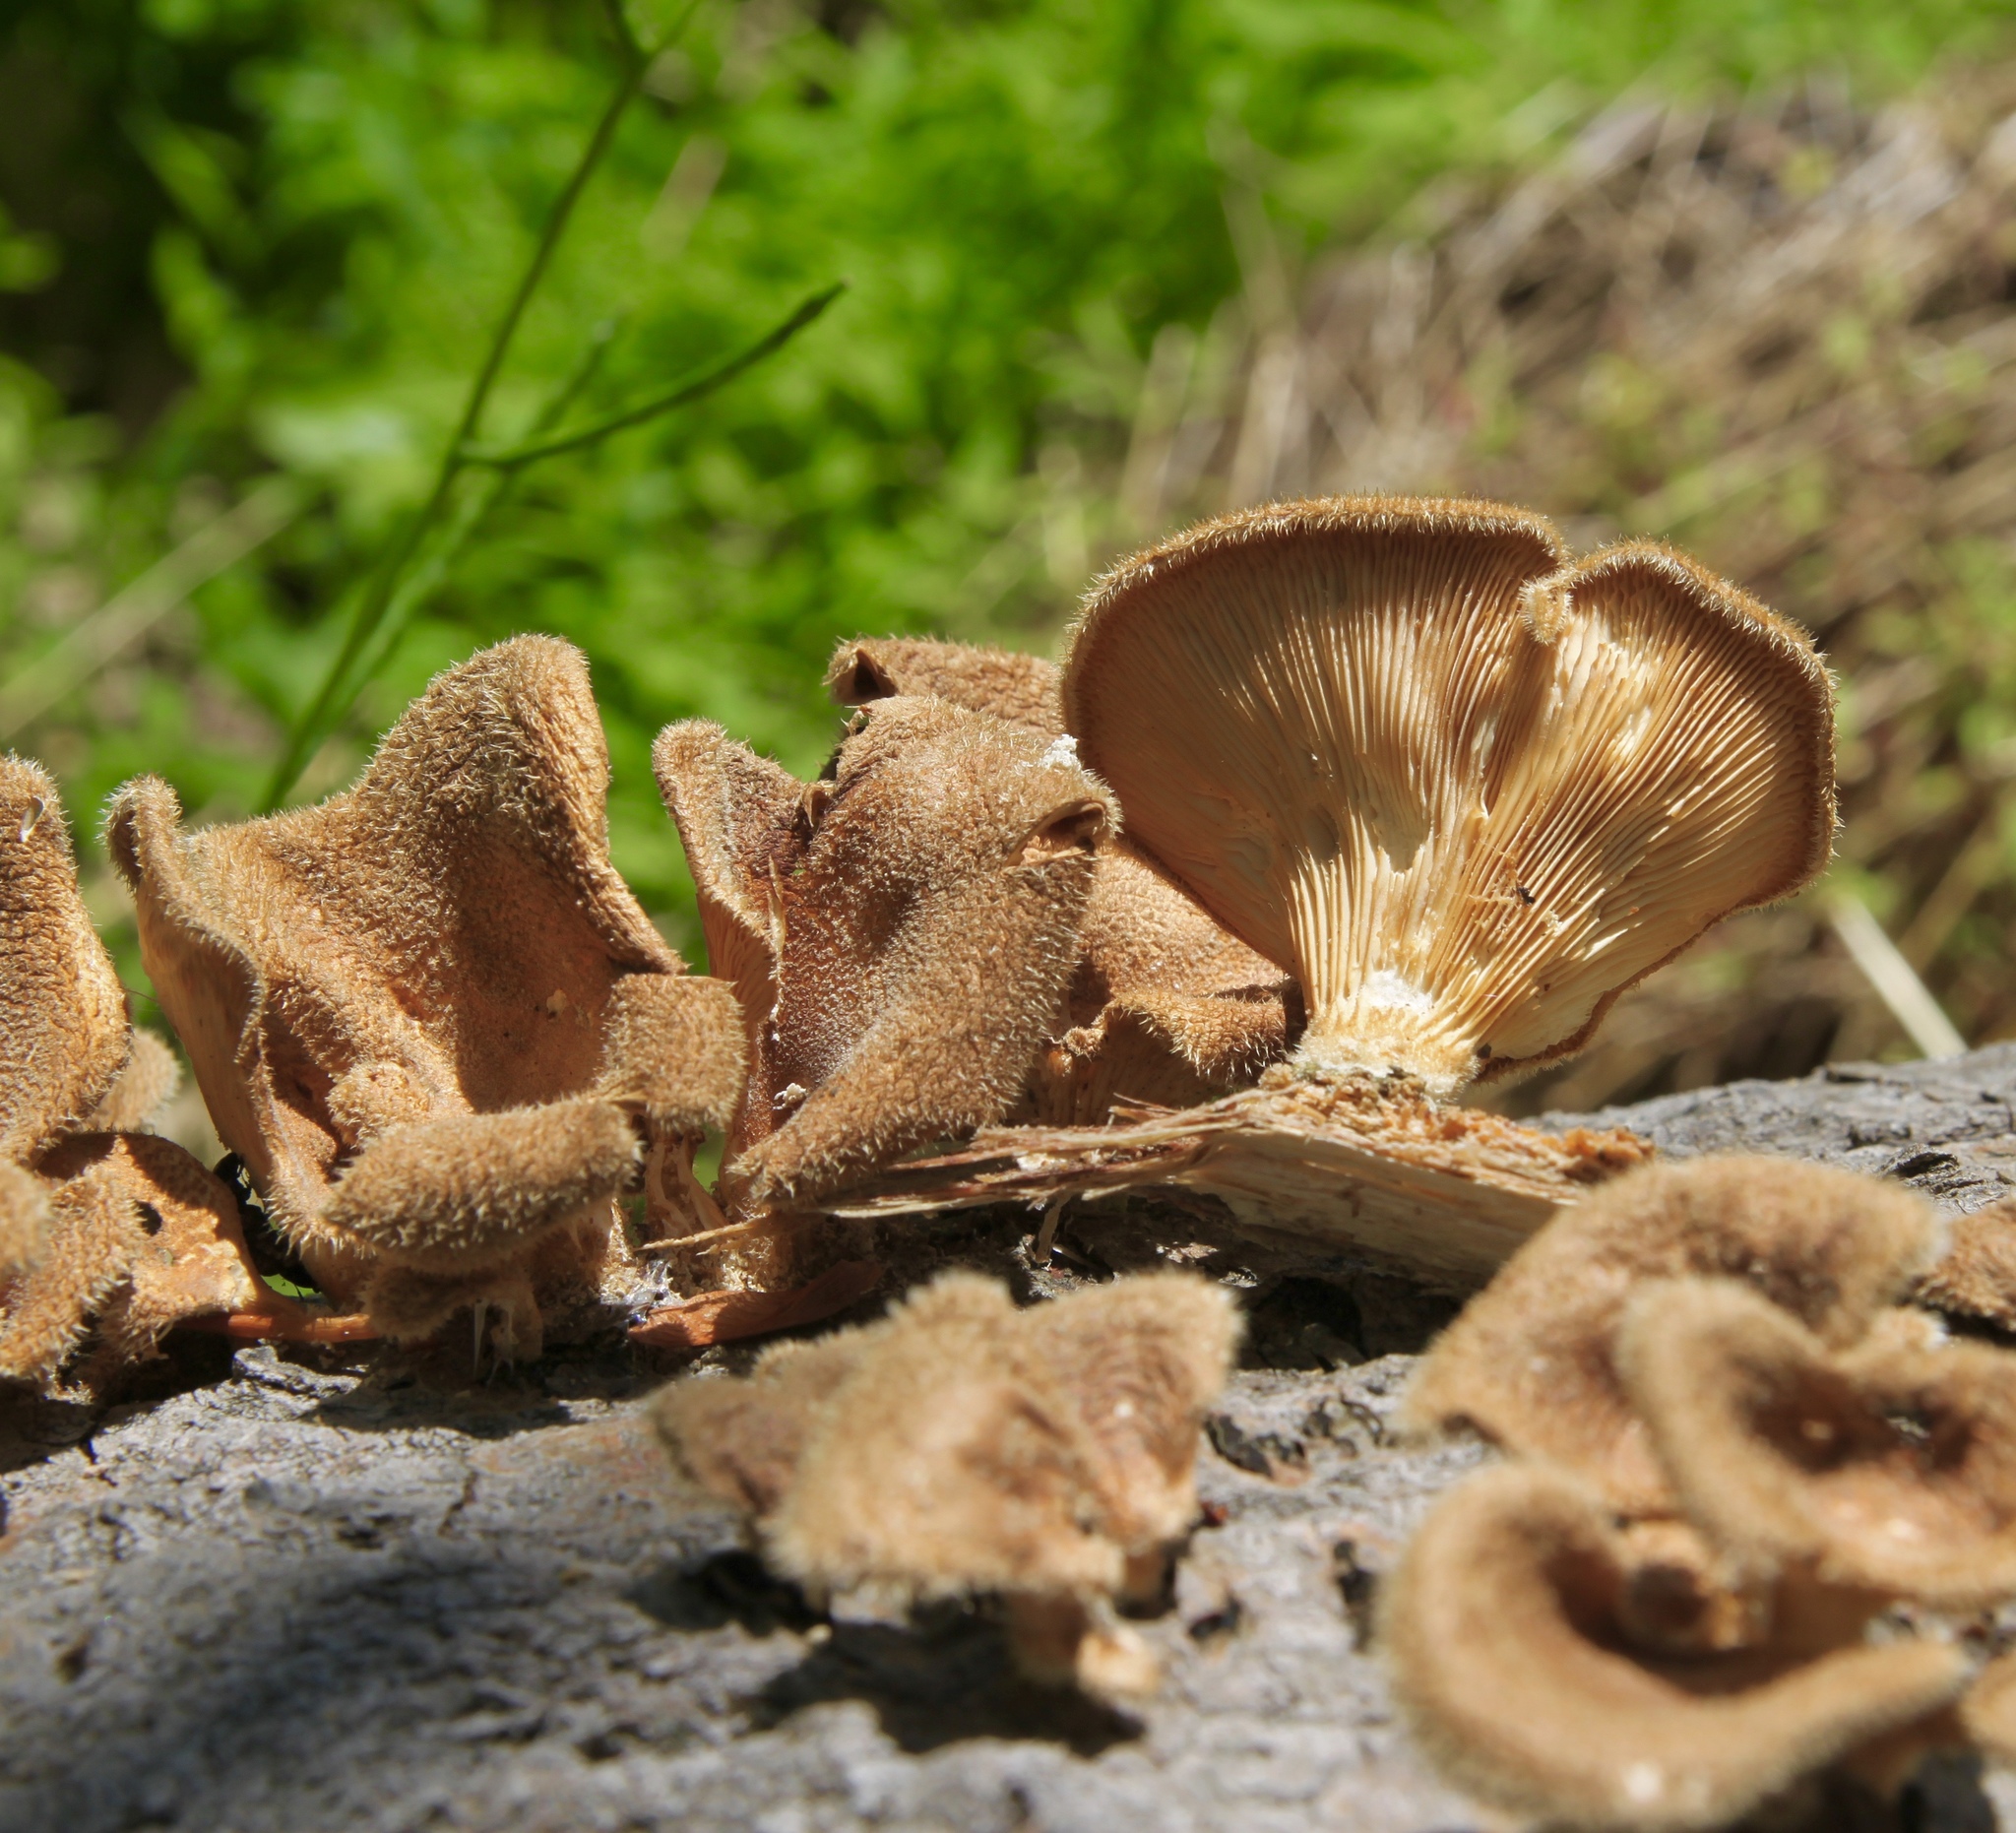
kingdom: Fungi
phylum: Basidiomycota
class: Agaricomycetes
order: Polyporales
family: Panaceae
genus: Panus
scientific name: Panus neostrigosus
